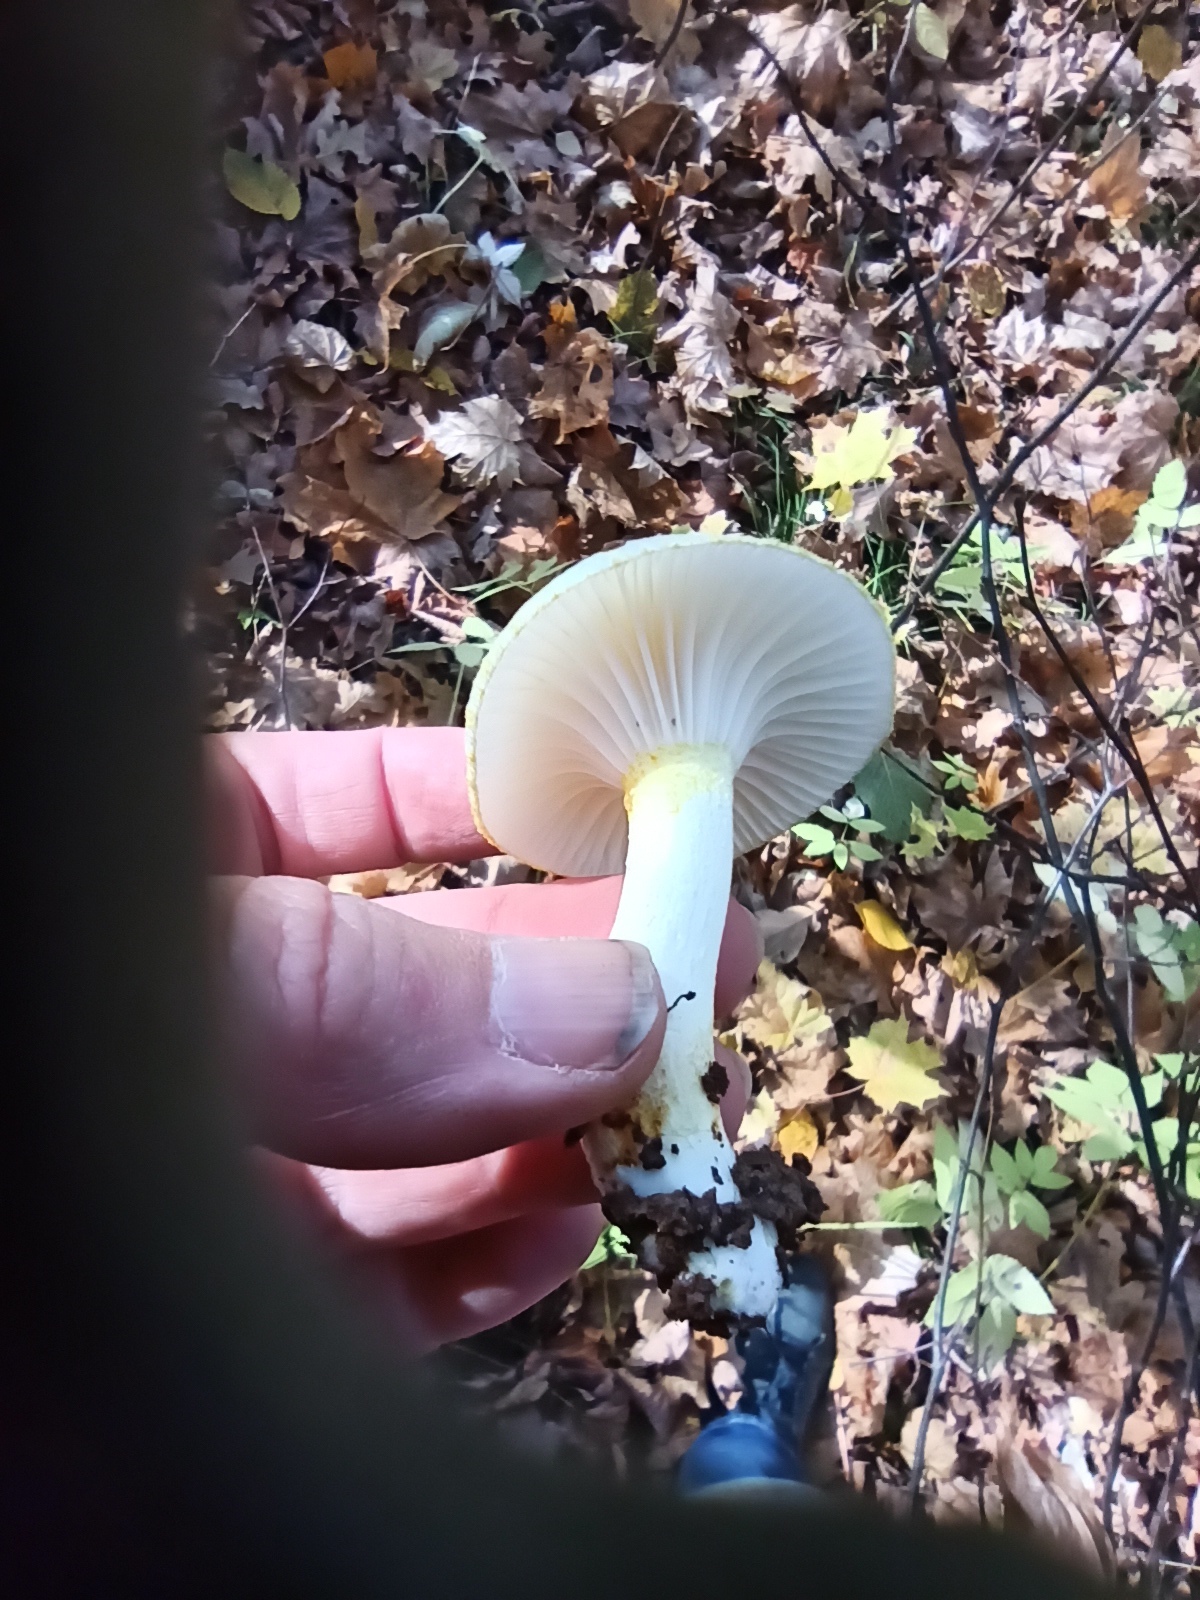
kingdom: Fungi
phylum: Basidiomycota
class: Agaricomycetes
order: Agaricales
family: Hygrophoraceae
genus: Hygrophorus
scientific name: Hygrophorus chrysodon
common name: Gold flecked woodwax
